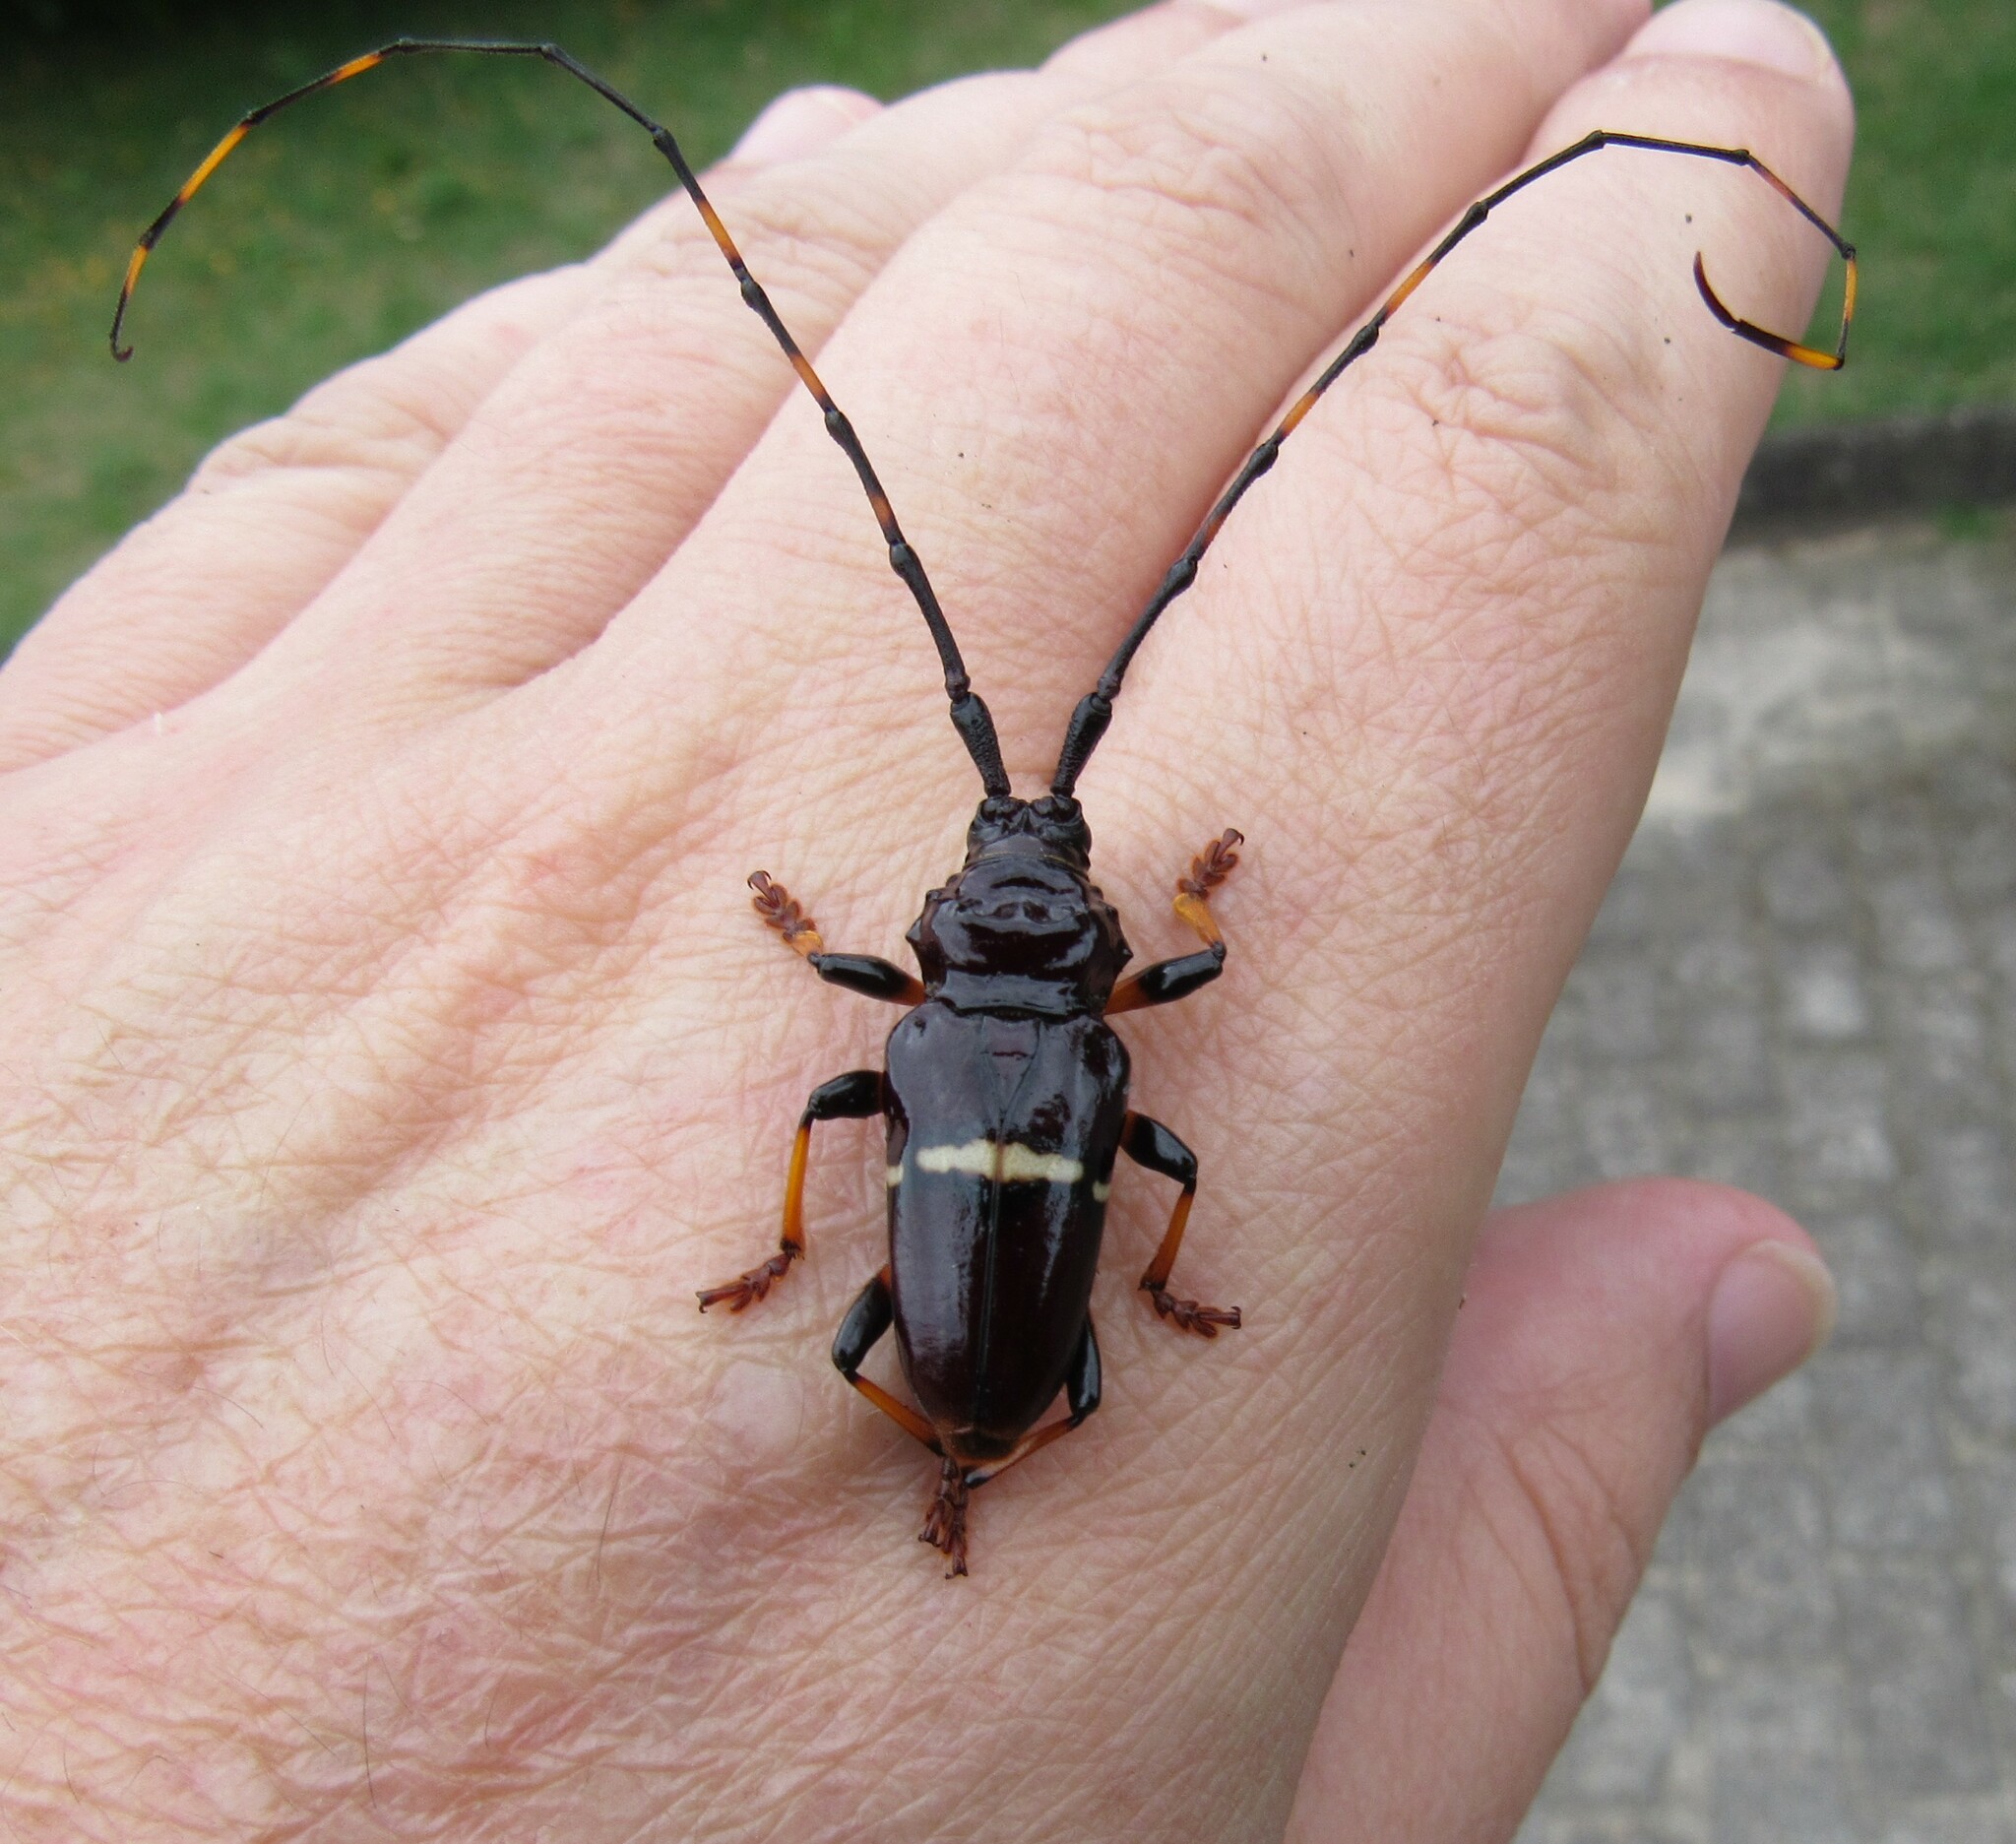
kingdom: Animalia
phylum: Arthropoda
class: Insecta
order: Coleoptera
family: Cerambycidae
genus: Trachyderes
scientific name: Trachyderes succinctus
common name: Mango longhorn
